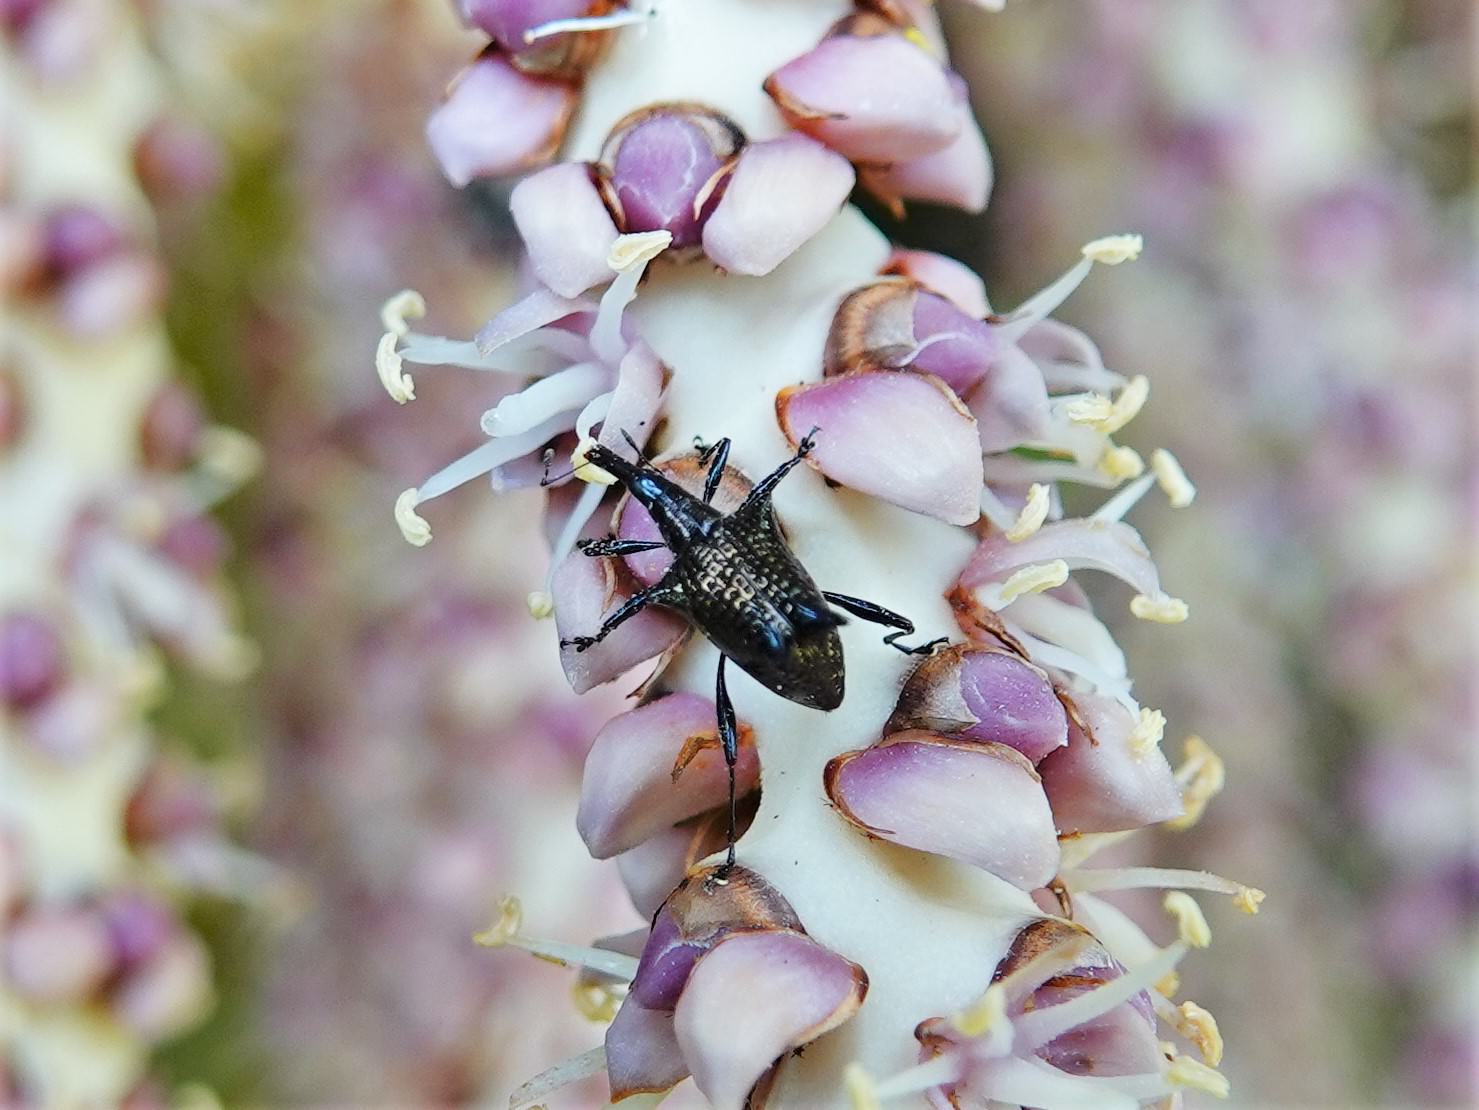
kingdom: Animalia
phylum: Arthropoda
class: Insecta
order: Coleoptera
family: Curculionidae
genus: Scolopterus
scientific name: Scolopterus aequus
